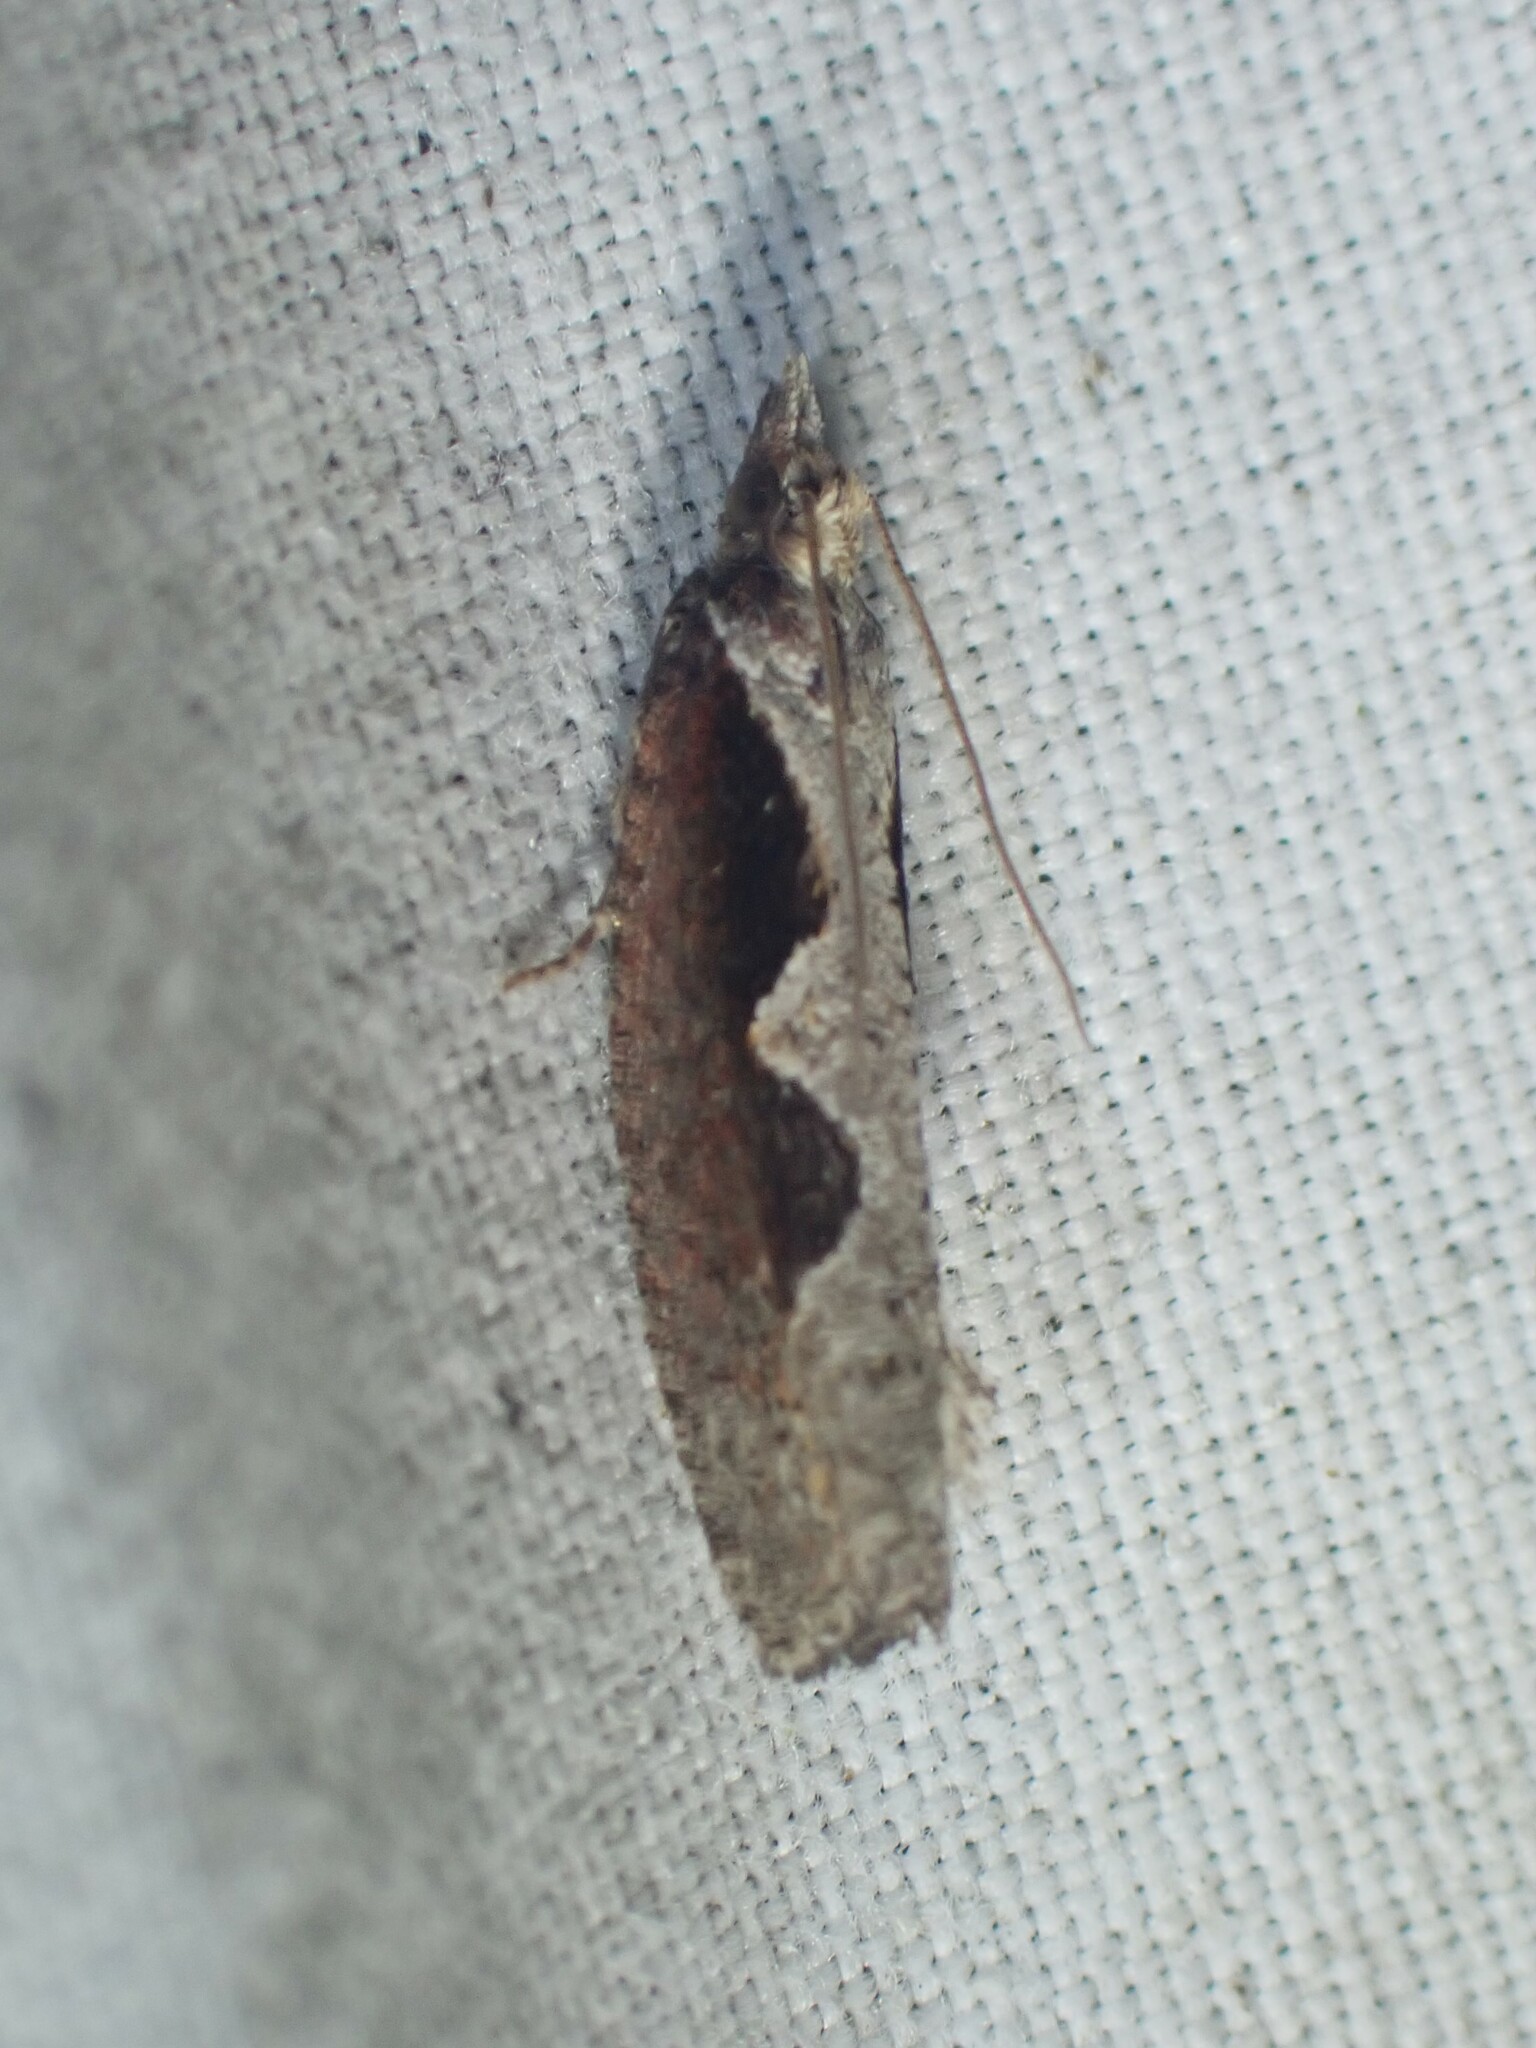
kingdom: Animalia
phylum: Arthropoda
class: Insecta
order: Lepidoptera
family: Tortricidae
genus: Epinotia
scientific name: Epinotia lindana
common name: Diamondback epinotia moth
